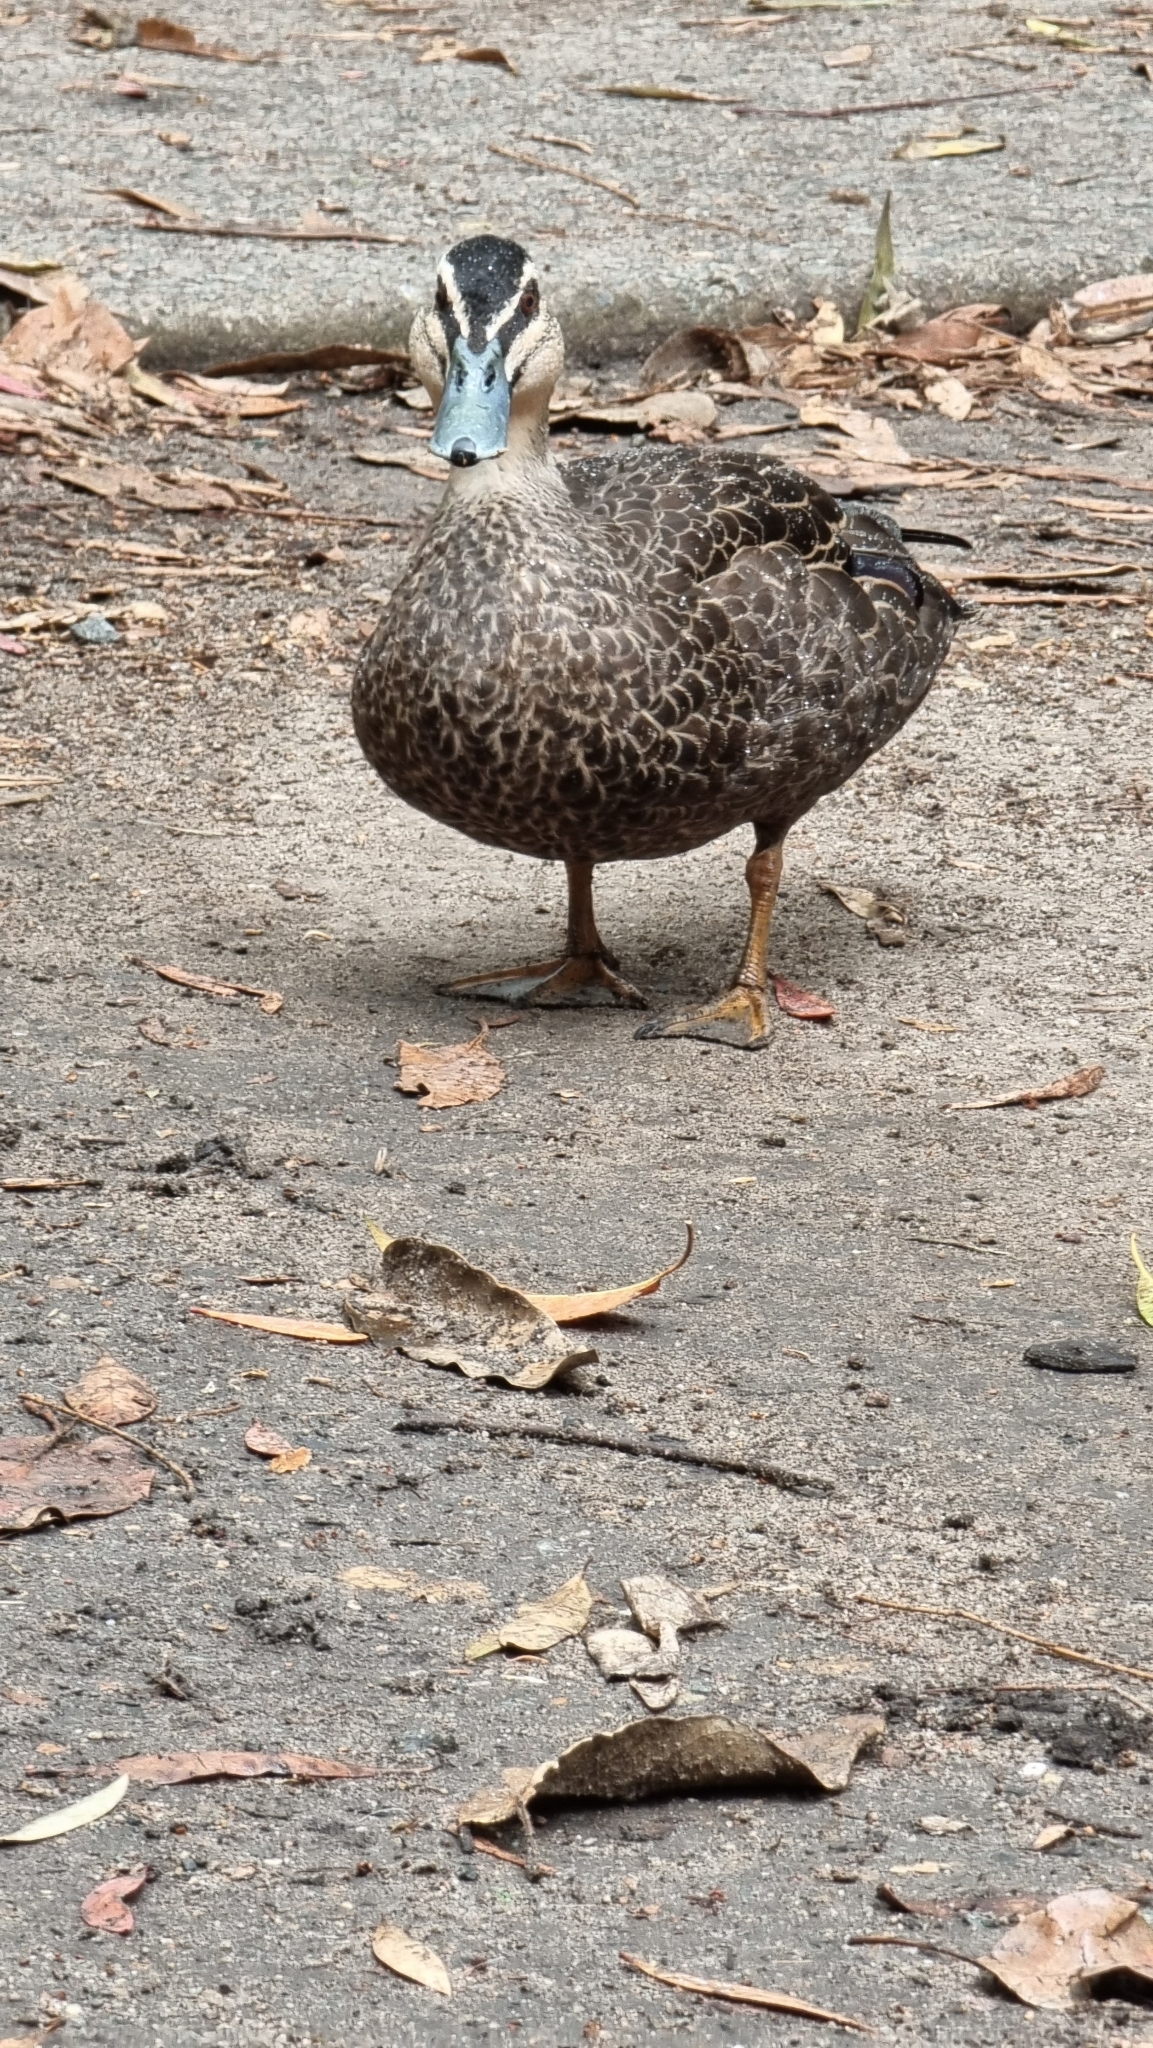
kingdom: Animalia
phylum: Chordata
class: Aves
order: Anseriformes
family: Anatidae
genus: Anas
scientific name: Anas superciliosa
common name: Pacific black duck
